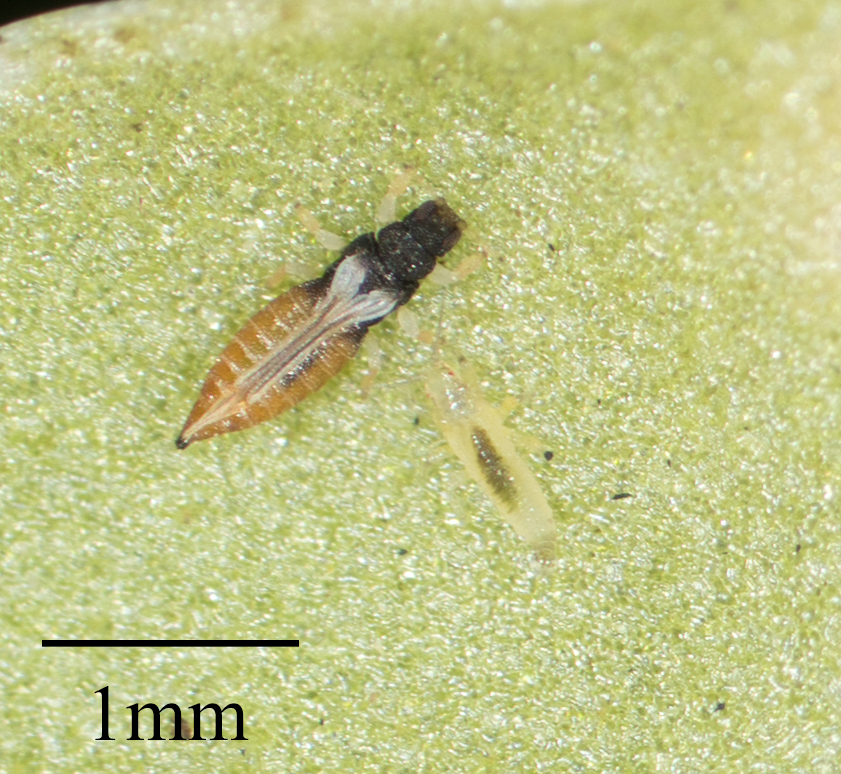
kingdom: Animalia
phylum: Arthropoda
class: Insecta
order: Thysanoptera
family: Thripidae
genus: Heliothrips
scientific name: Heliothrips haemorrhoidalis
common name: Thrips
